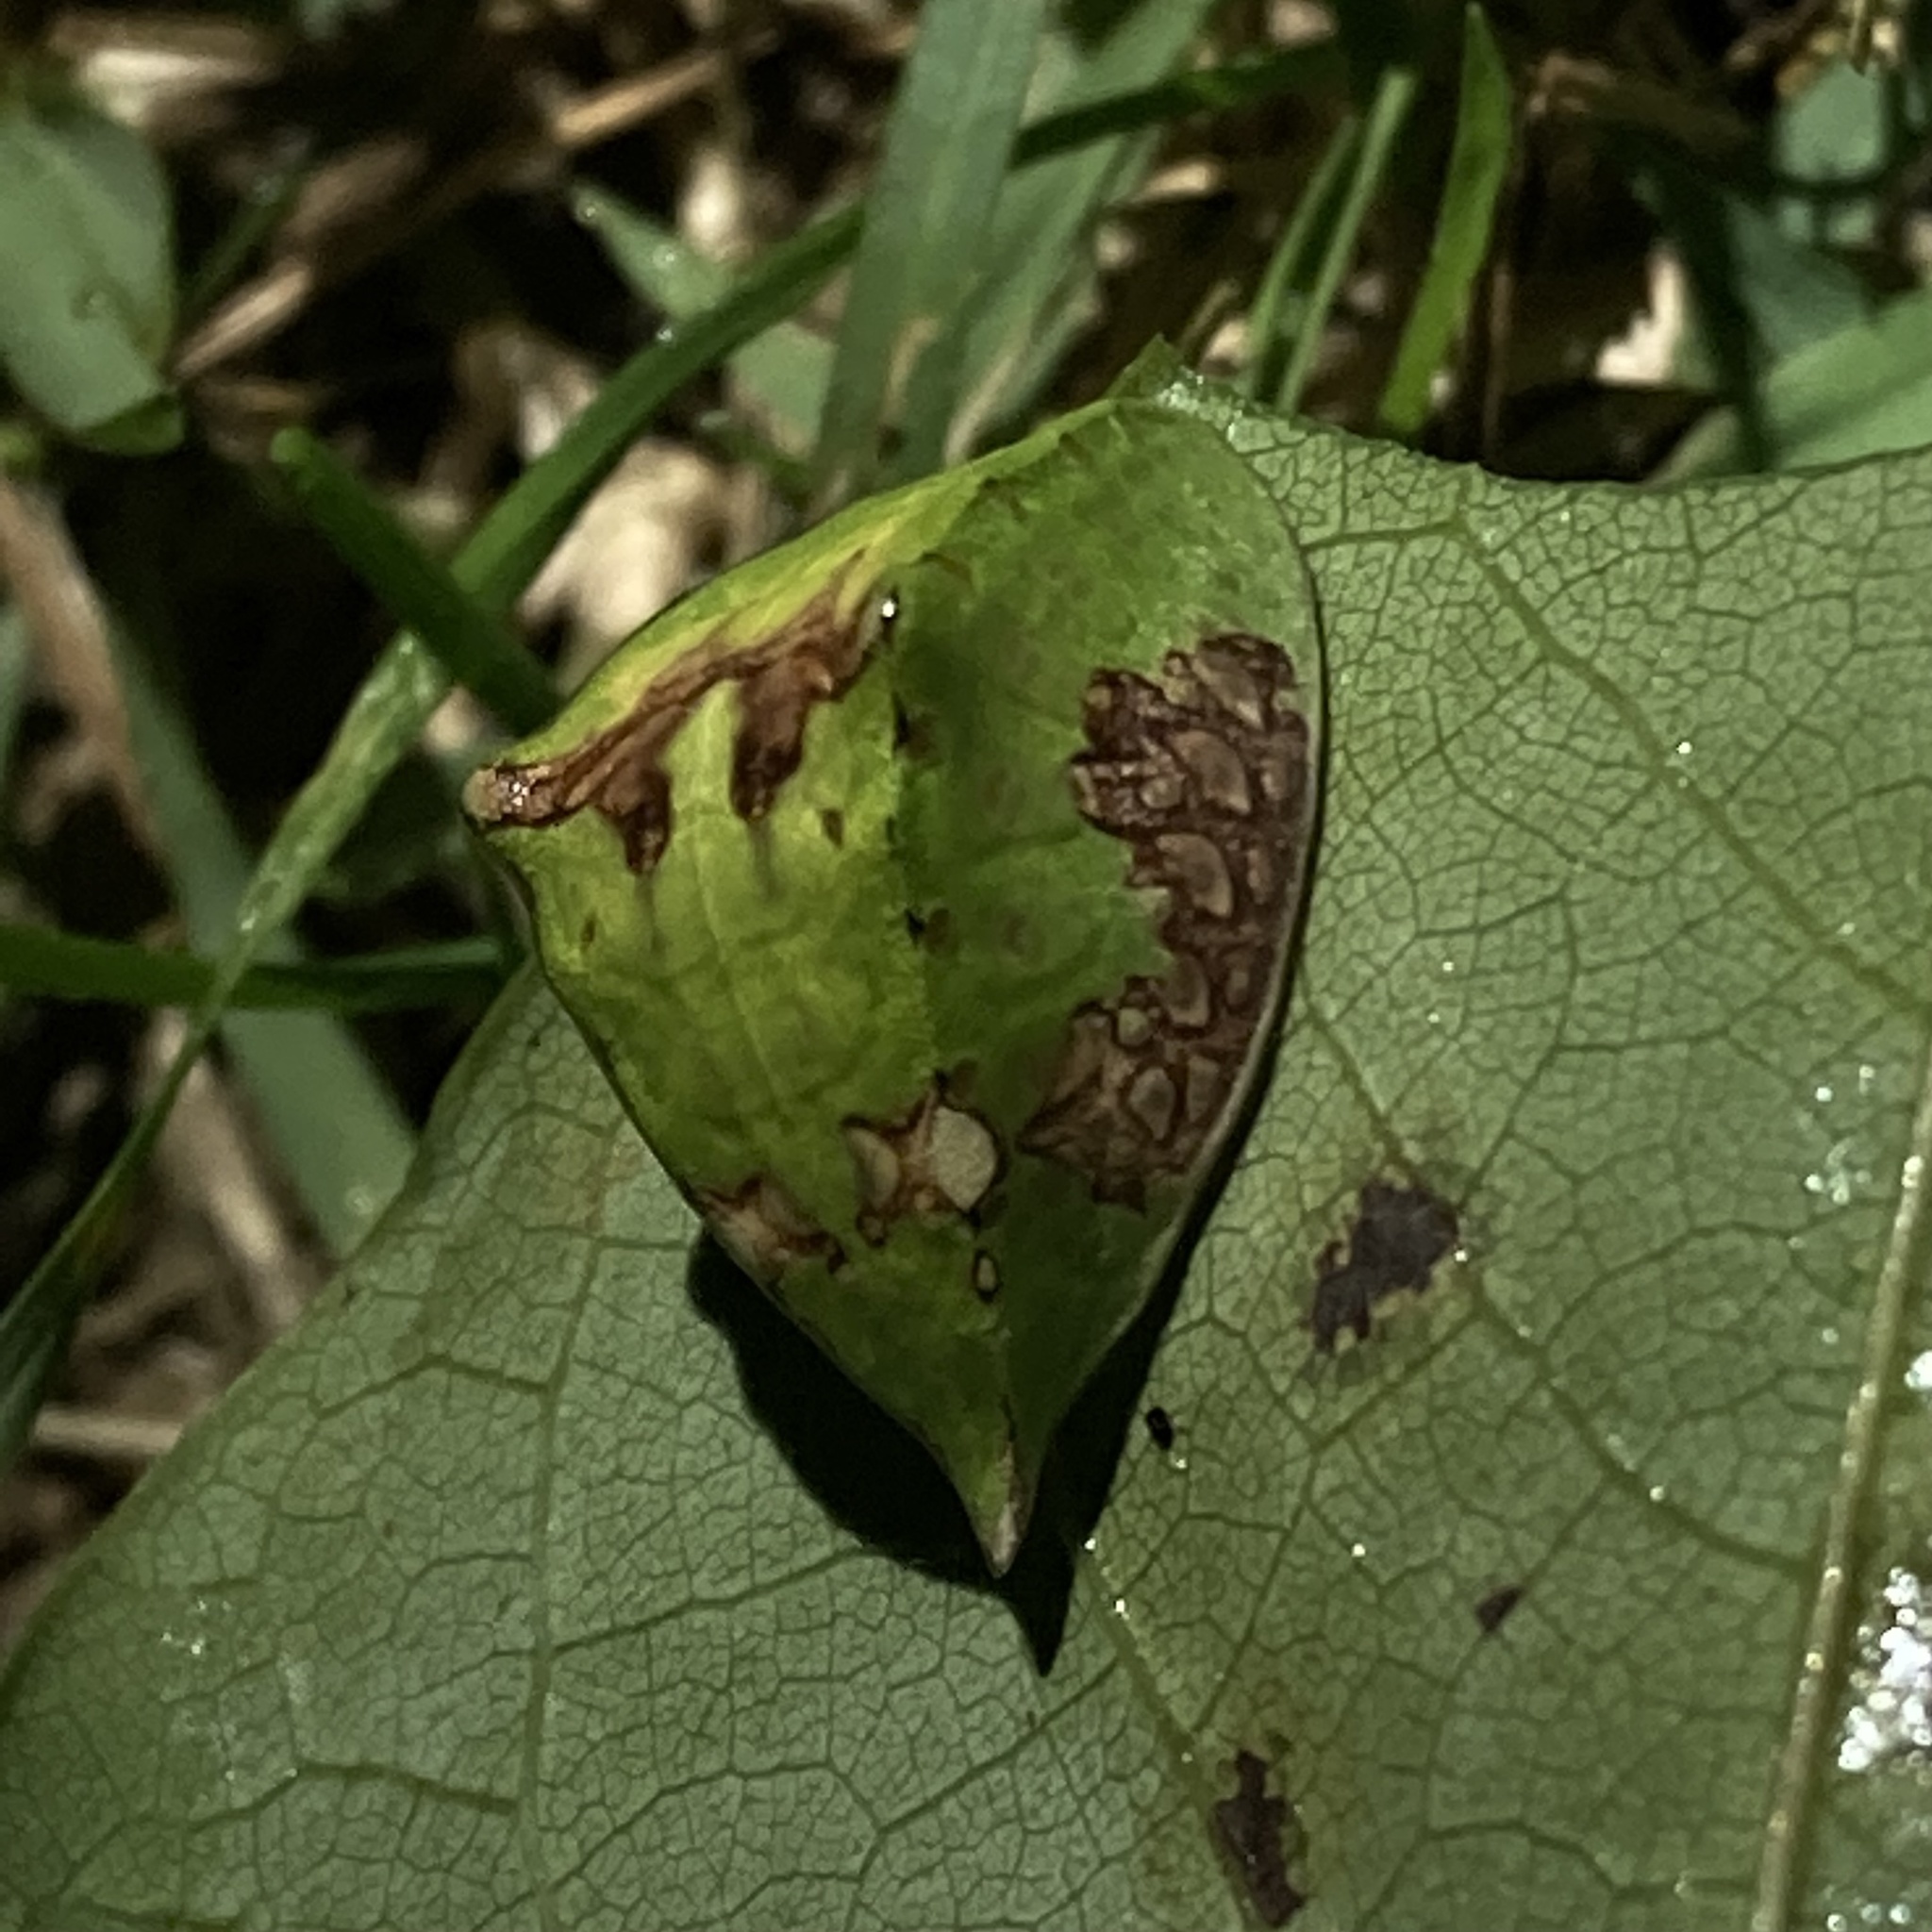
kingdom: Animalia
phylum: Arthropoda
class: Insecta
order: Lepidoptera
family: Limacodidae
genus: Prolimacodes
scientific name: Prolimacodes badia
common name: Skiff moth
